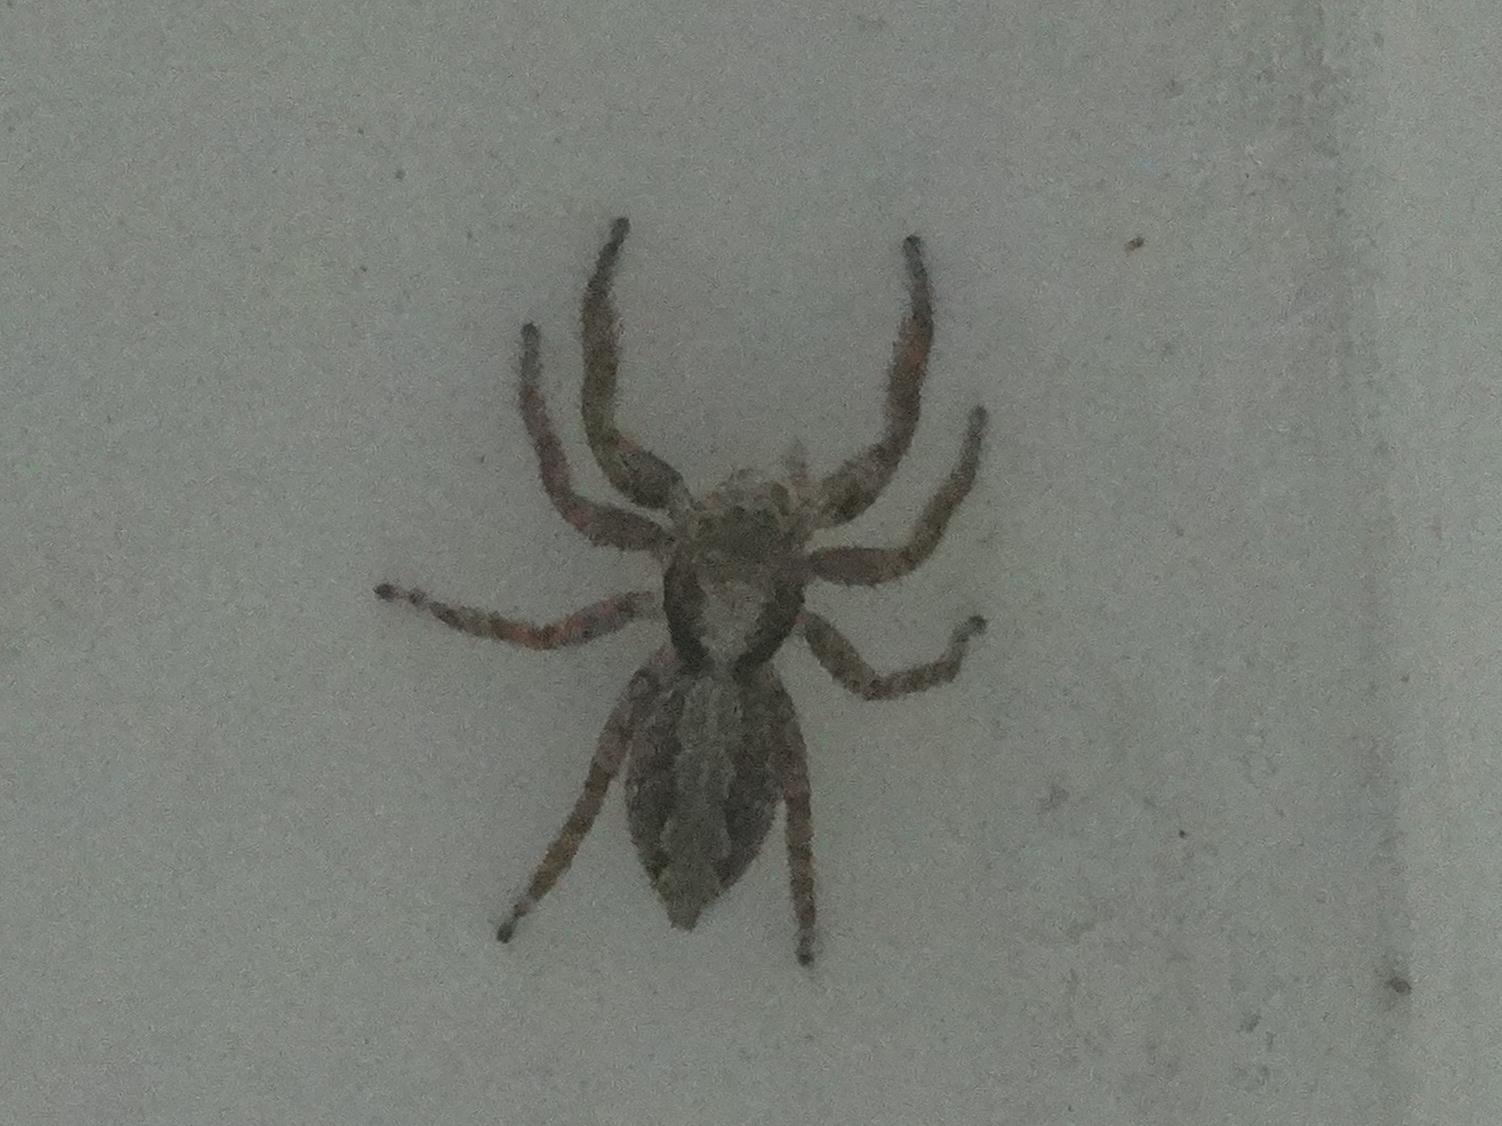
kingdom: Animalia
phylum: Arthropoda
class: Arachnida
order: Araneae
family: Salticidae
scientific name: Salticidae
